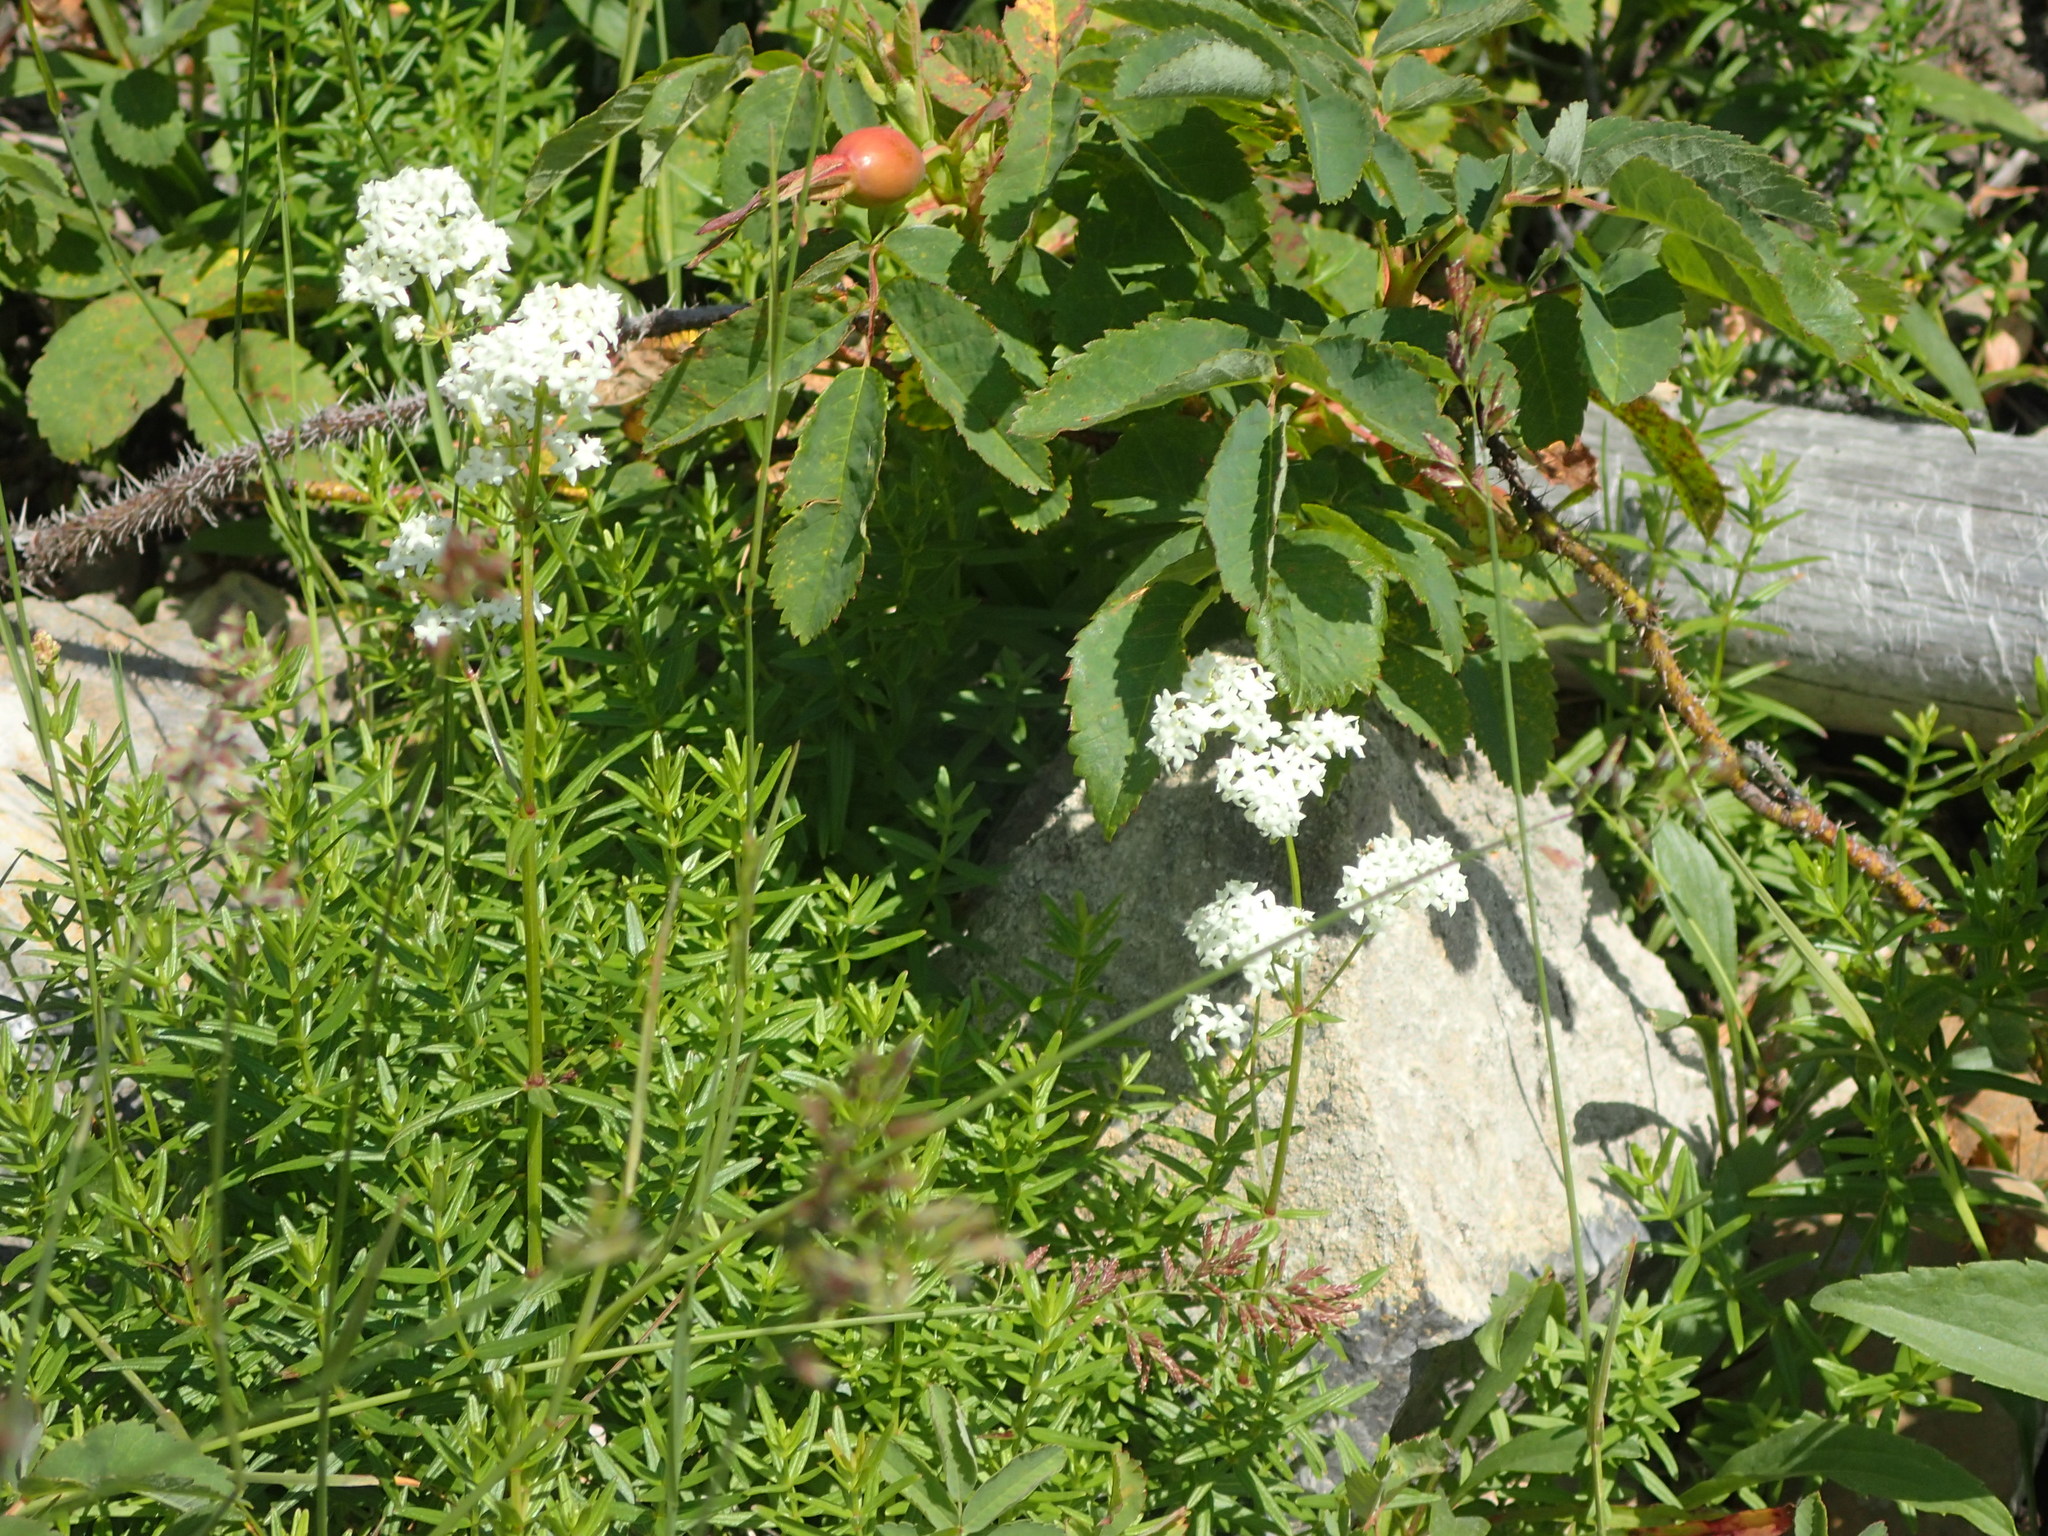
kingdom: Plantae
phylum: Tracheophyta
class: Magnoliopsida
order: Gentianales
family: Rubiaceae
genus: Galium
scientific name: Galium boreale
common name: Northern bedstraw
